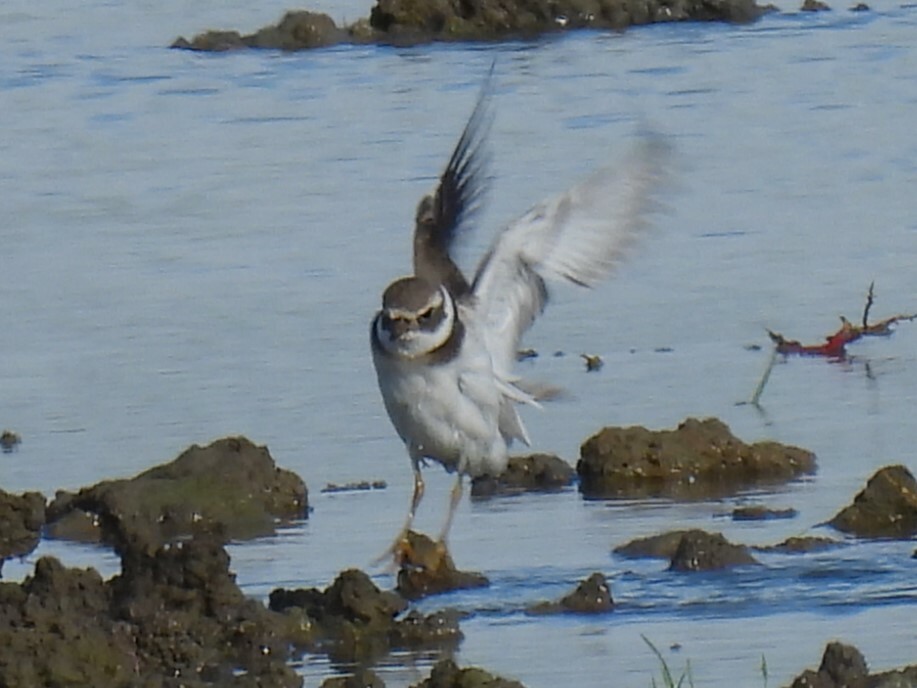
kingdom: Animalia
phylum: Chordata
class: Aves
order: Charadriiformes
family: Charadriidae
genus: Charadrius
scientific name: Charadrius hiaticula
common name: Common ringed plover
